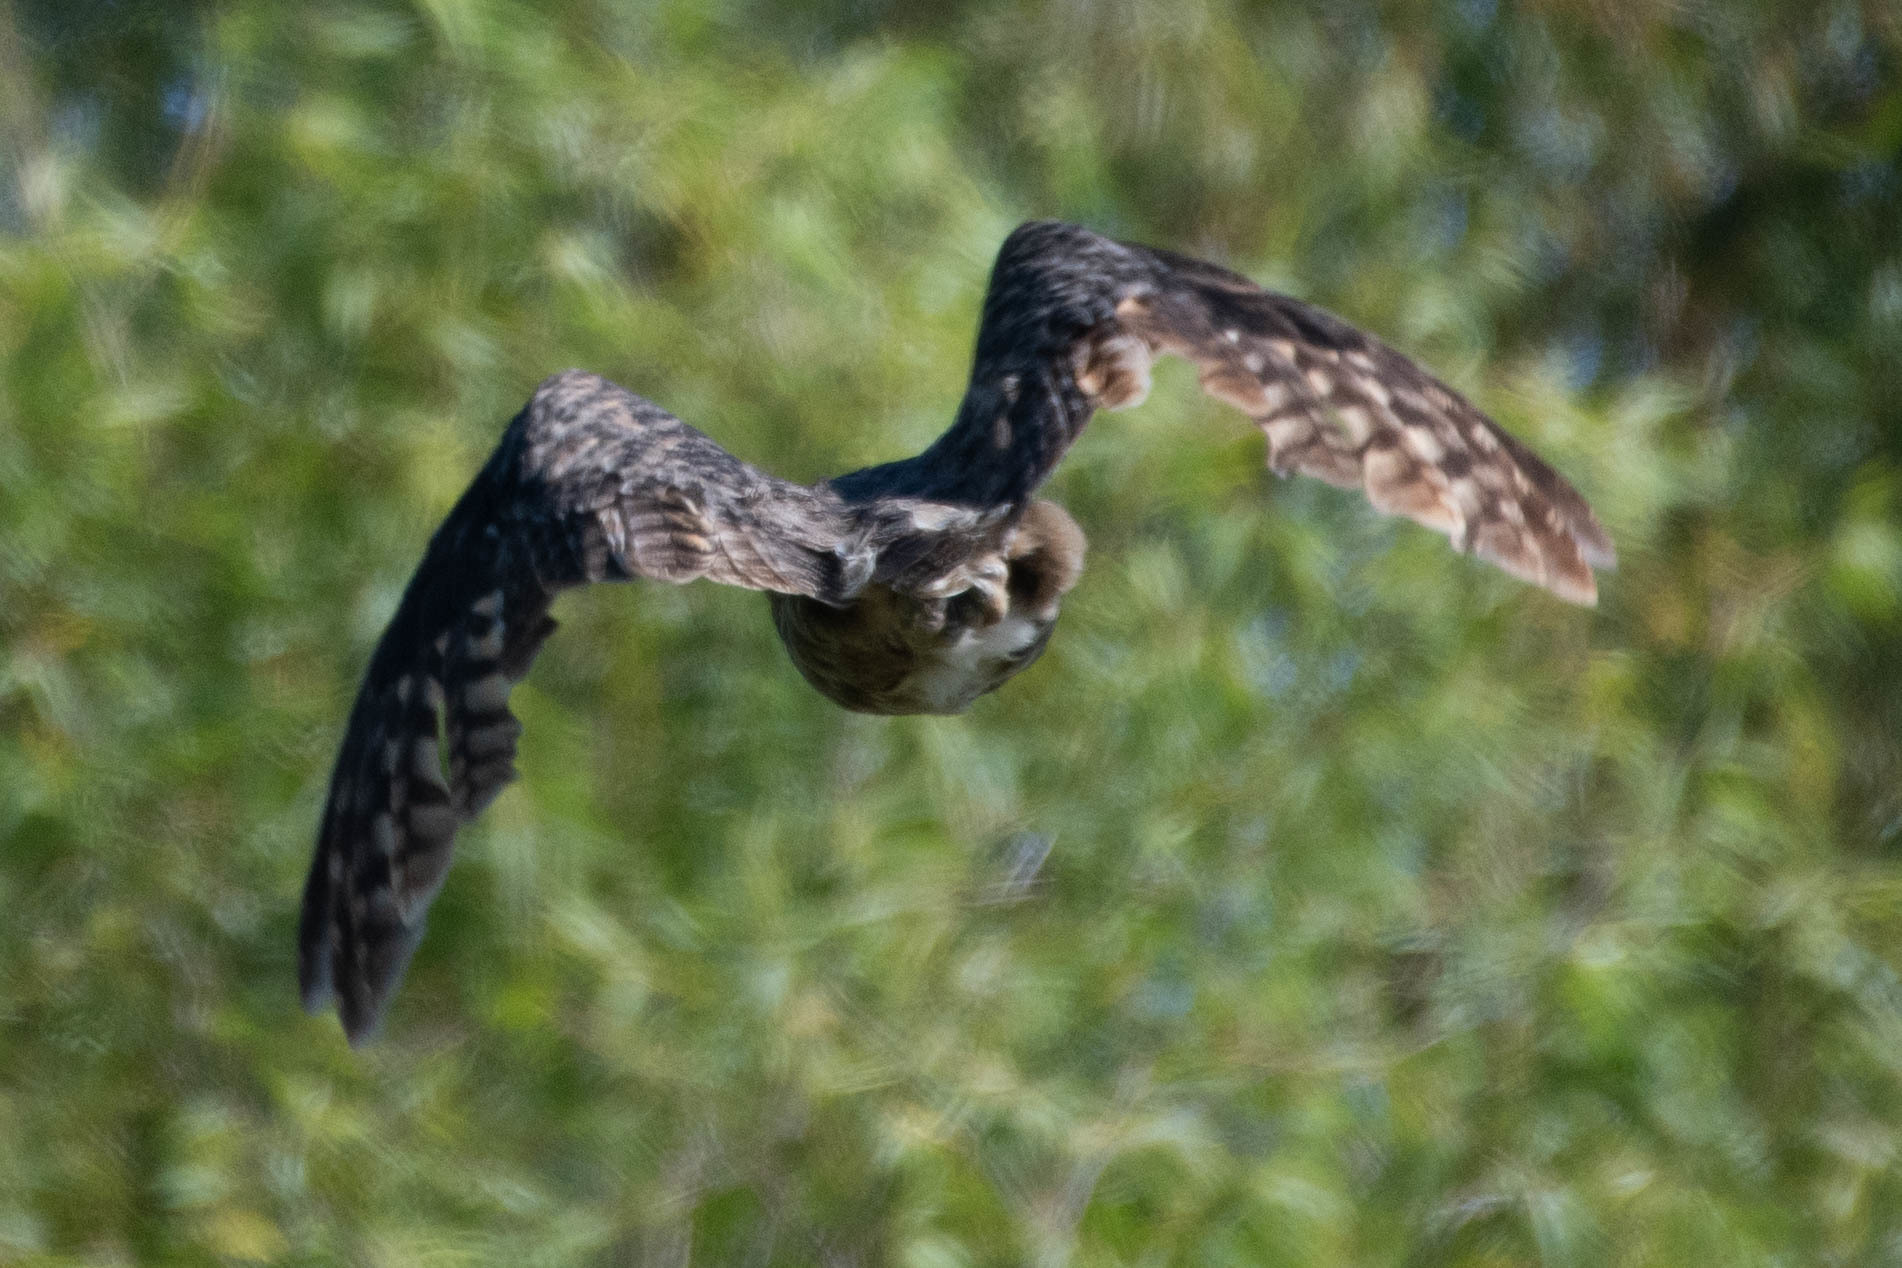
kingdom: Animalia
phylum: Chordata
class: Aves
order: Strigiformes
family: Strigidae
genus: Bubo
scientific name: Bubo virginianus
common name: Great horned owl
